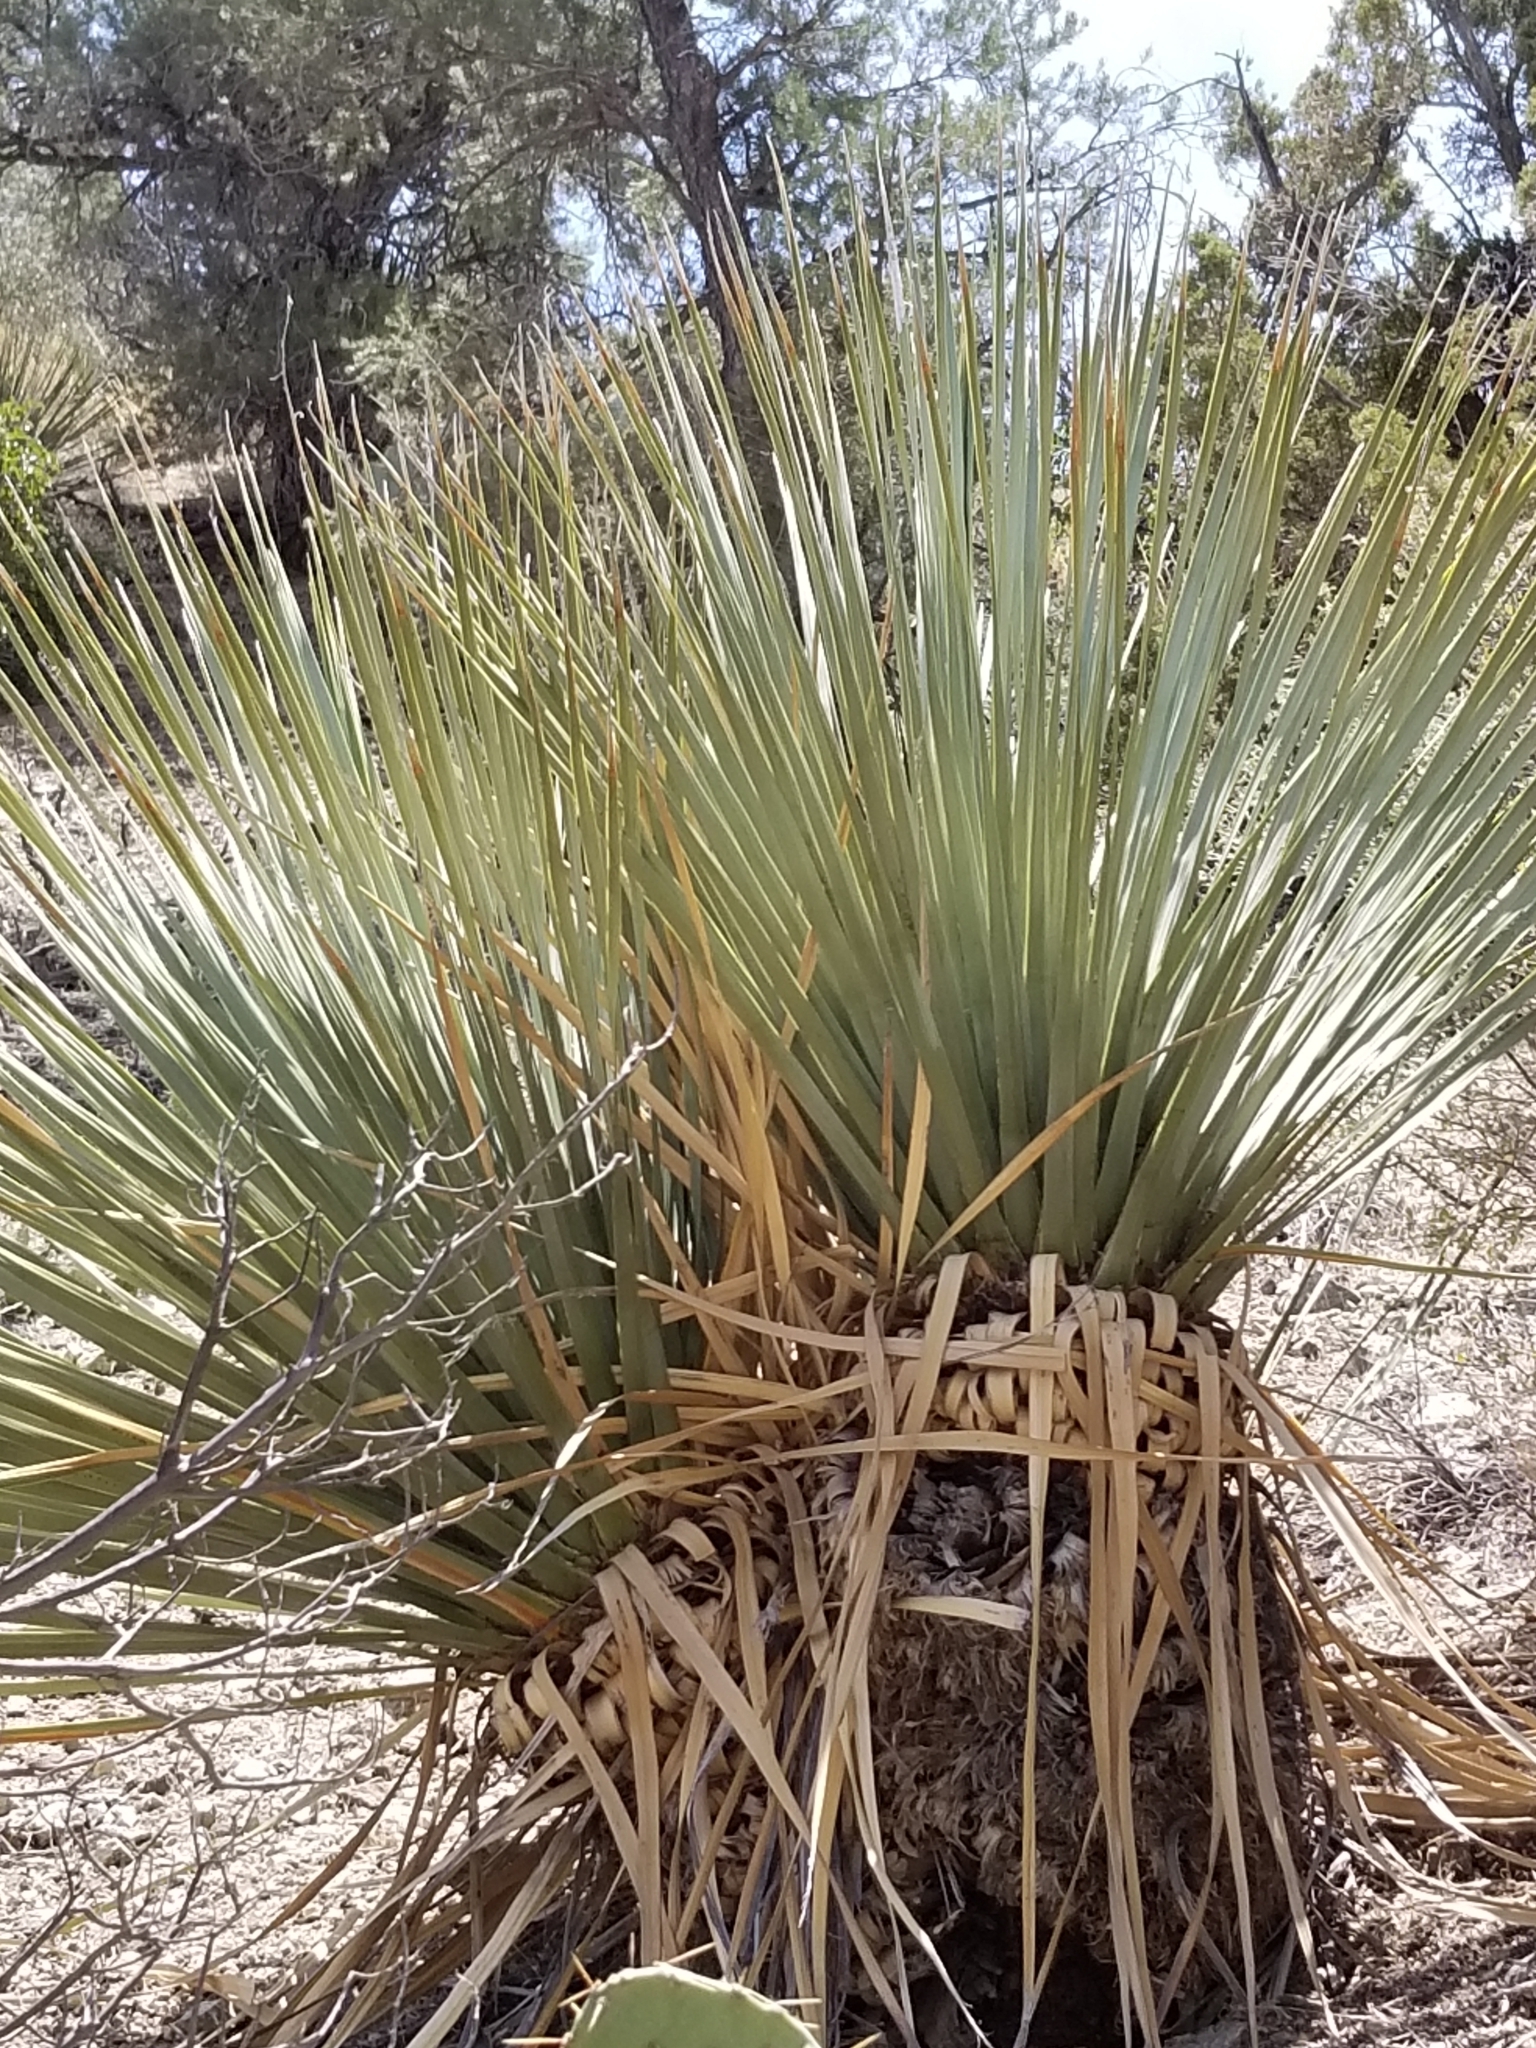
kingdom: Plantae
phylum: Tracheophyta
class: Liliopsida
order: Asparagales
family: Asparagaceae
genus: Nolina
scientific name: Nolina parryi
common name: Parry nolina
